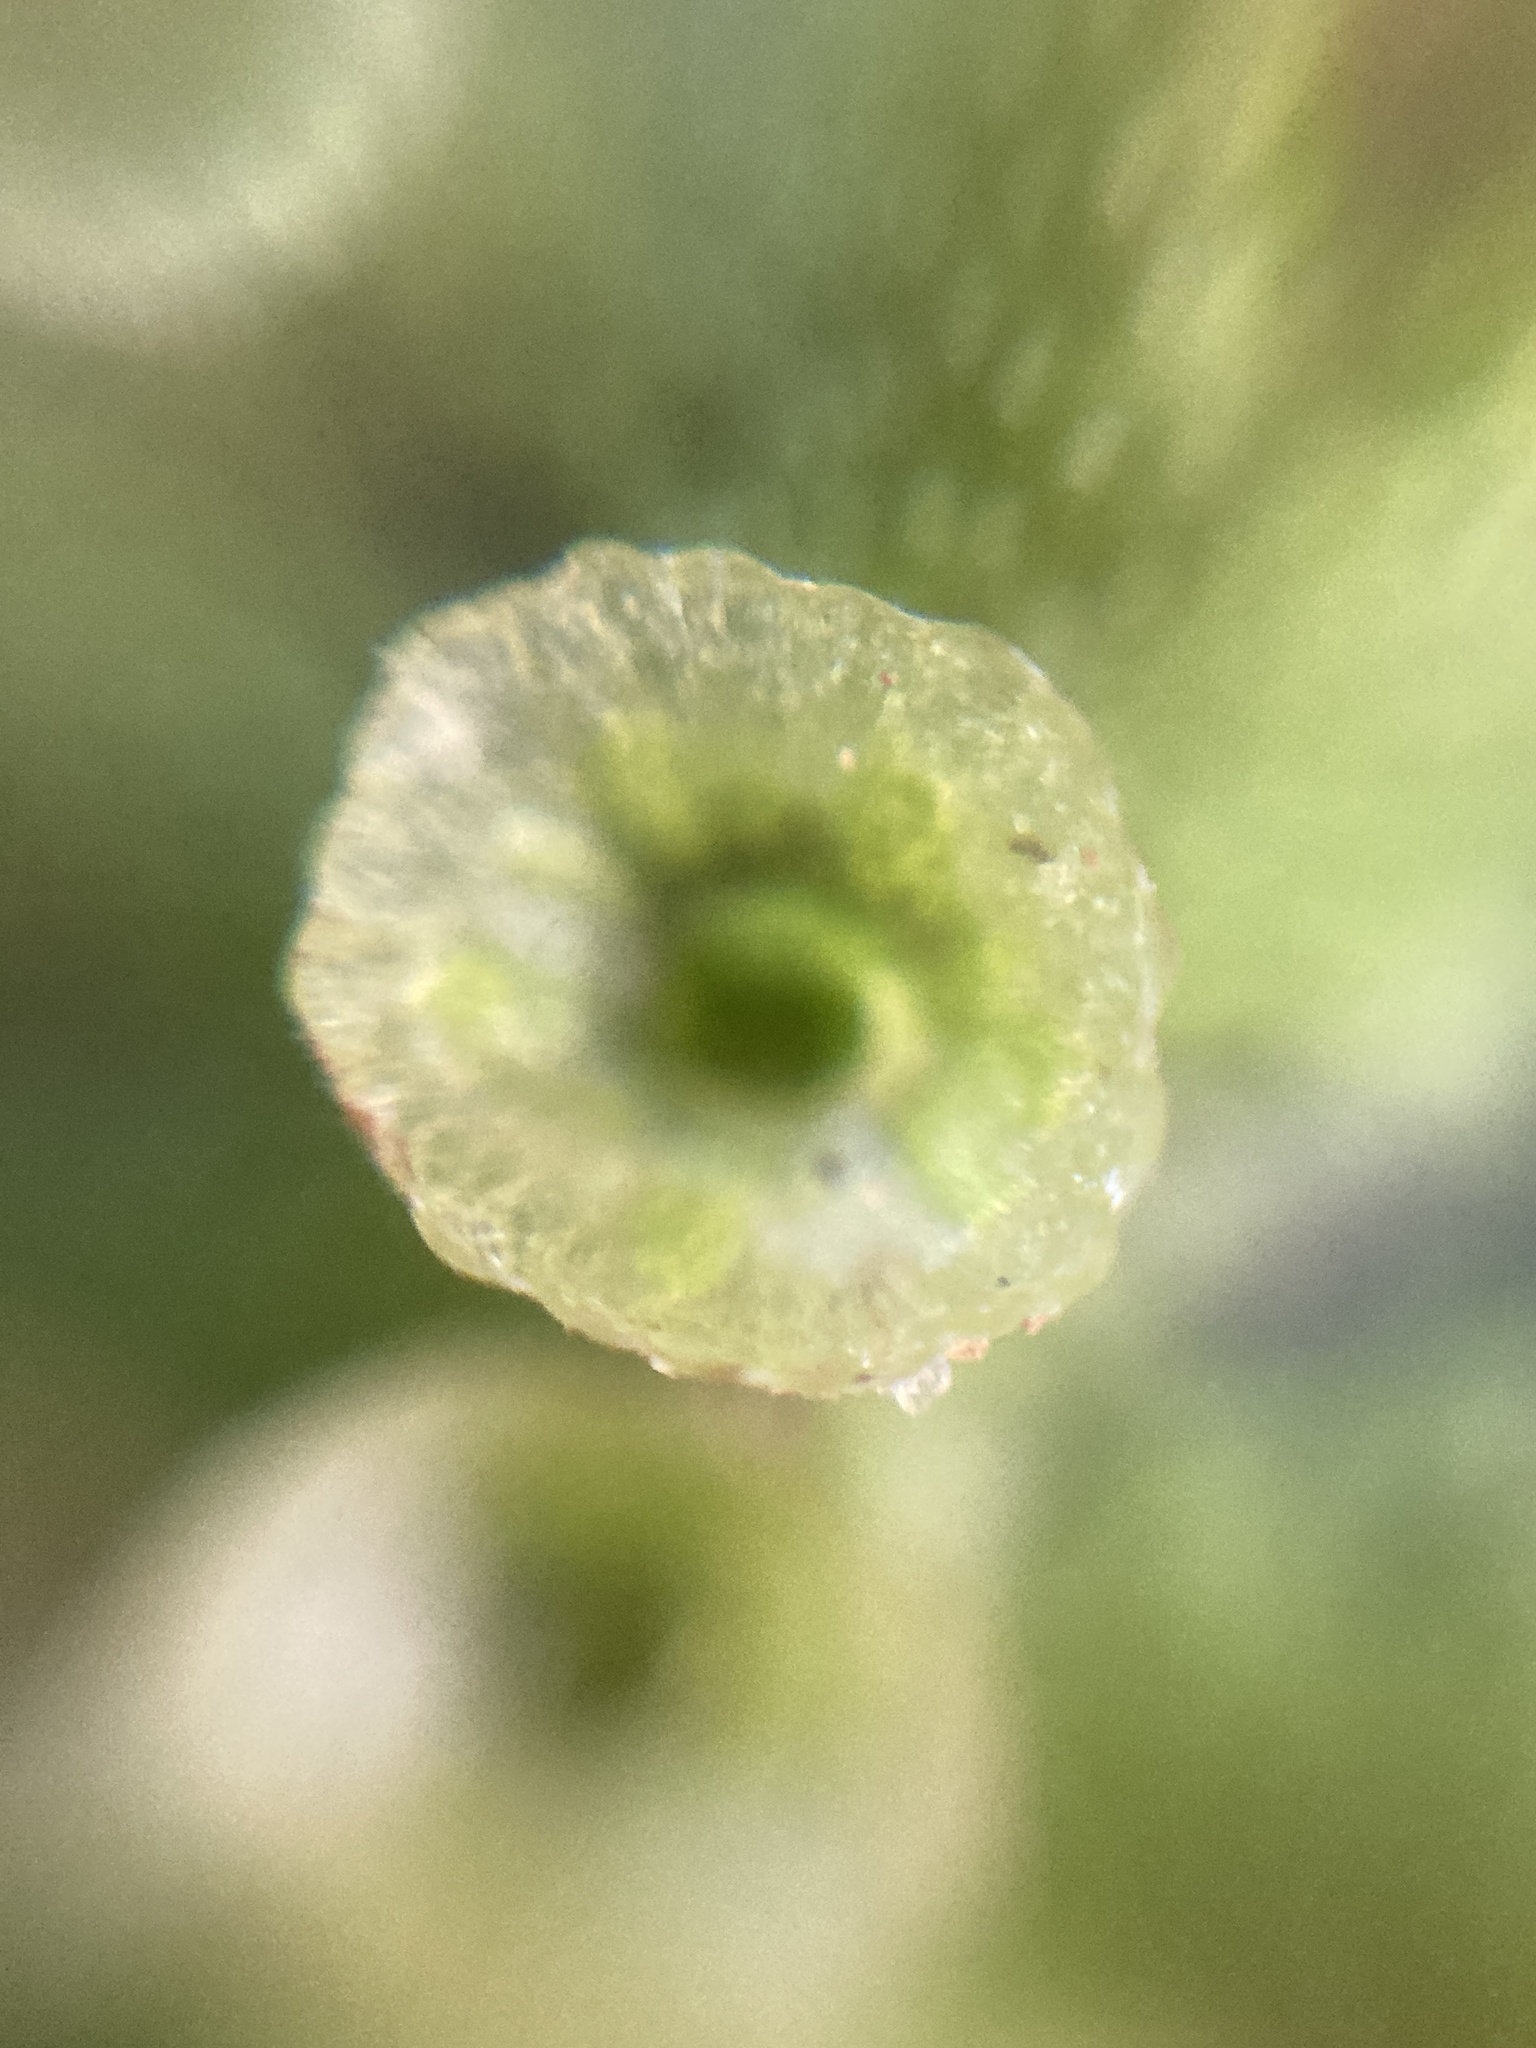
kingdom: Plantae
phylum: Marchantiophyta
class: Marchantiopsida
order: Marchantiales
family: Marchantiaceae
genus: Marchantia
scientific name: Marchantia polymorpha
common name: Common liverwort
